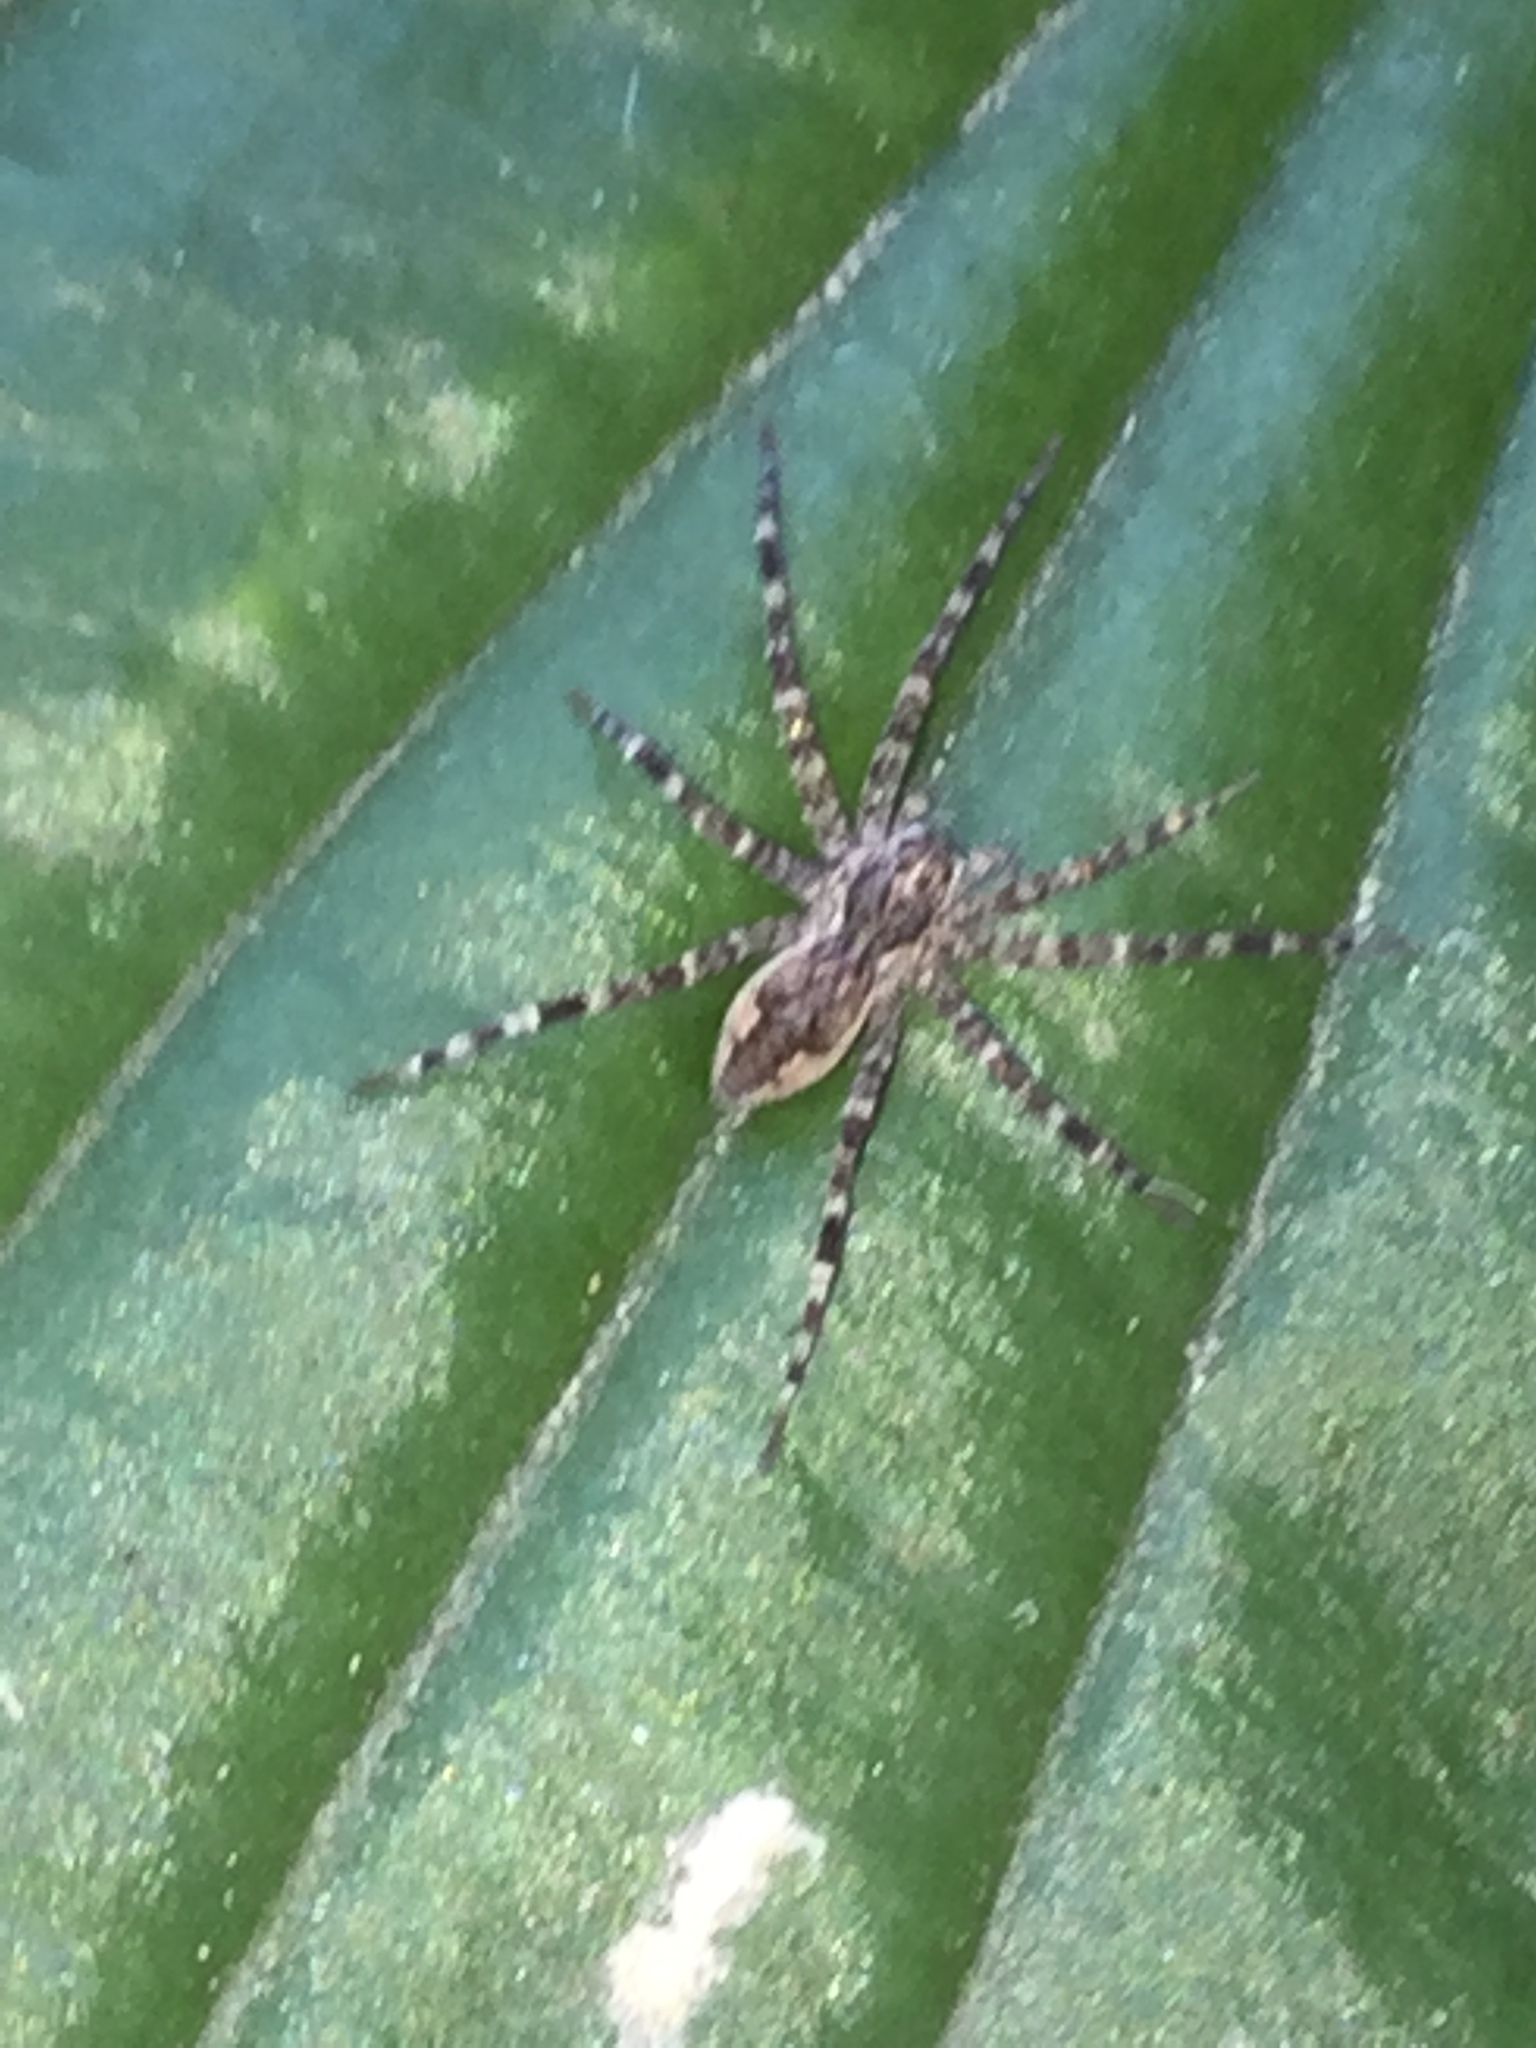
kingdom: Animalia
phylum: Arthropoda
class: Arachnida
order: Araneae
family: Pisauridae
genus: Dolomedes
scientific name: Dolomedes tenebrosus
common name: Dark fishing spider
